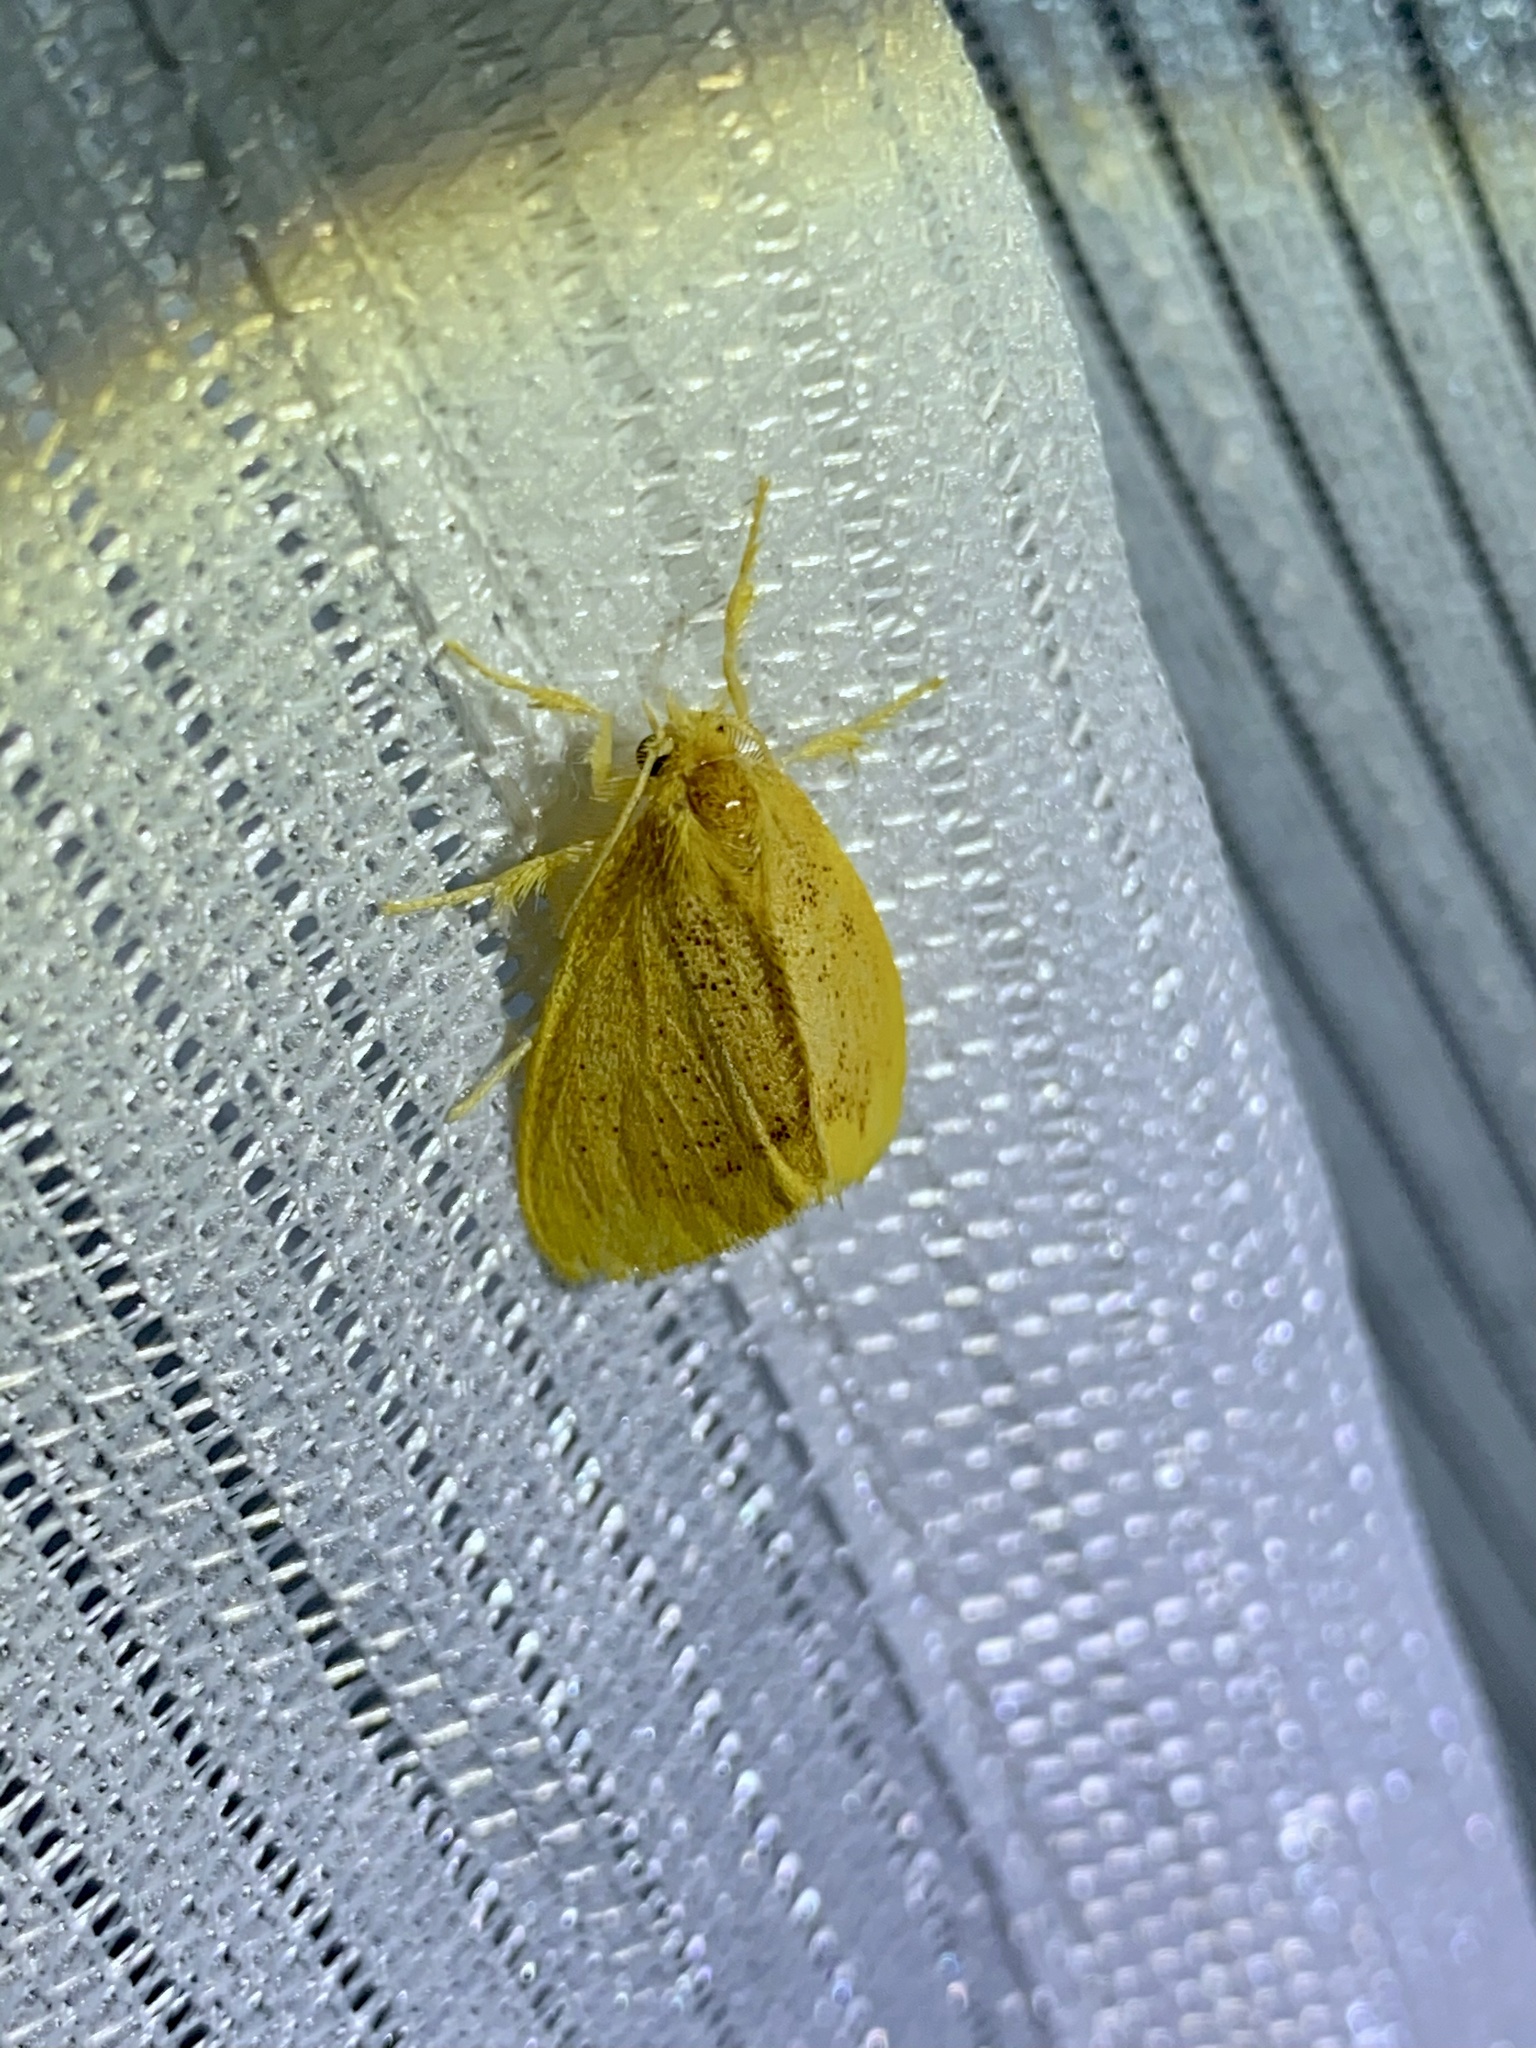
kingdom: Animalia
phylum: Arthropoda
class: Insecta
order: Lepidoptera
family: Erebidae
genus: Somena
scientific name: Somena
